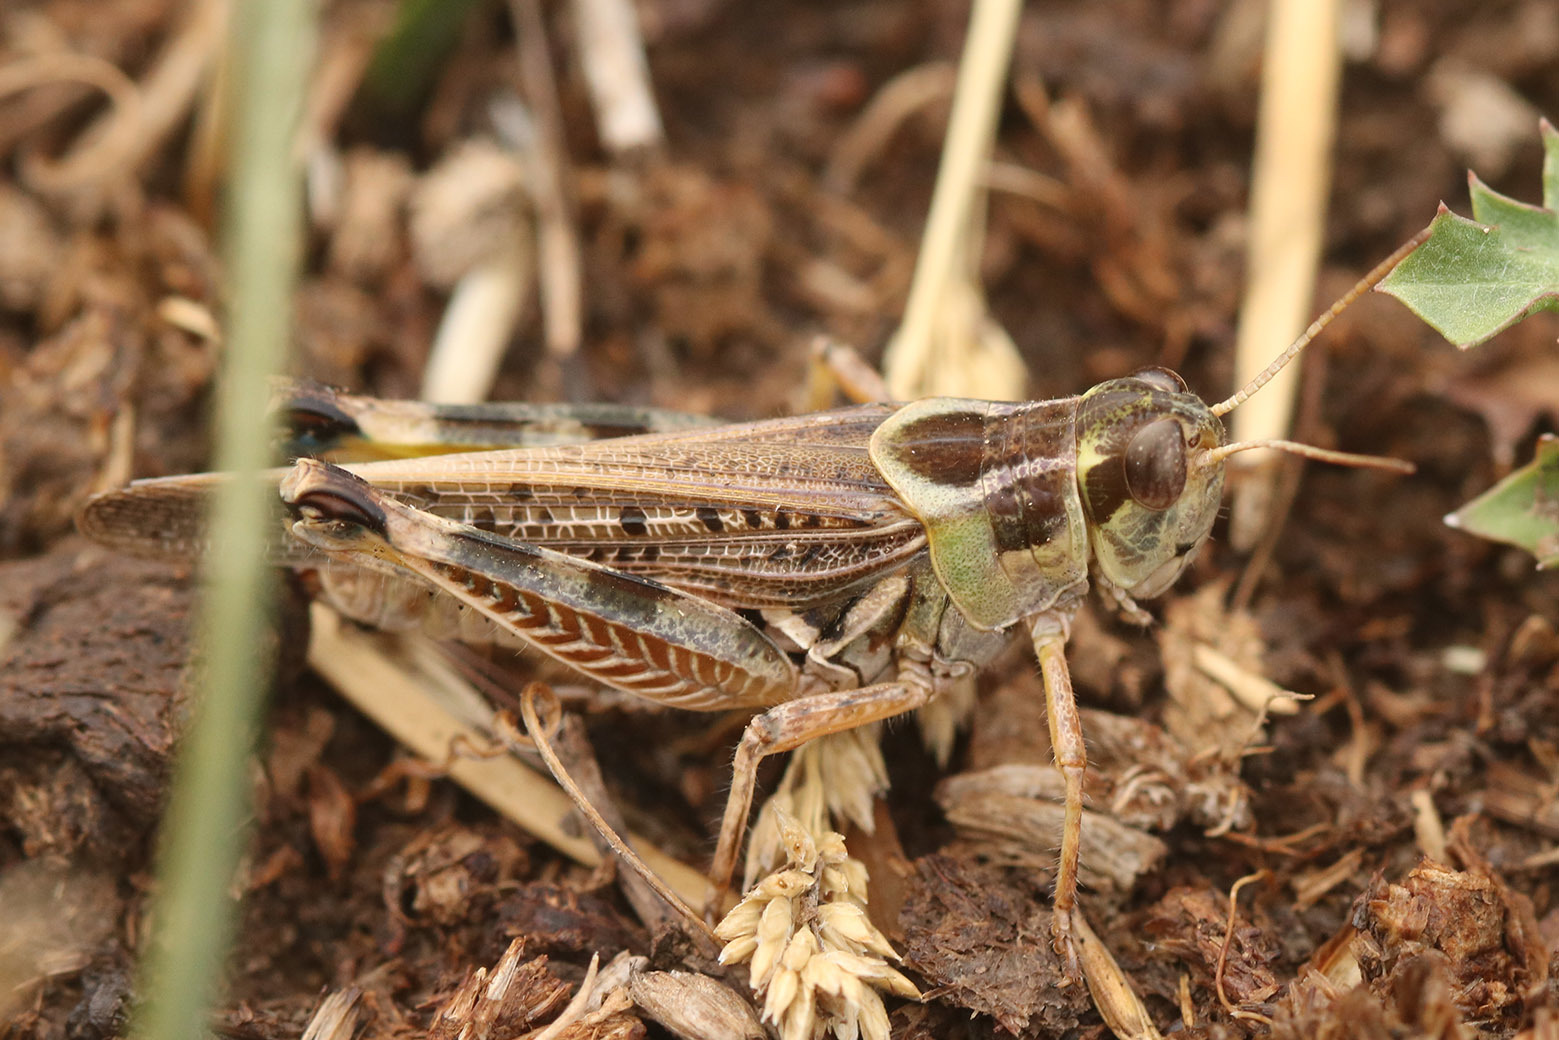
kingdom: Animalia
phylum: Arthropoda
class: Insecta
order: Orthoptera
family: Acrididae
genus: Dichroplus
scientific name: Dichroplus maculipennis
